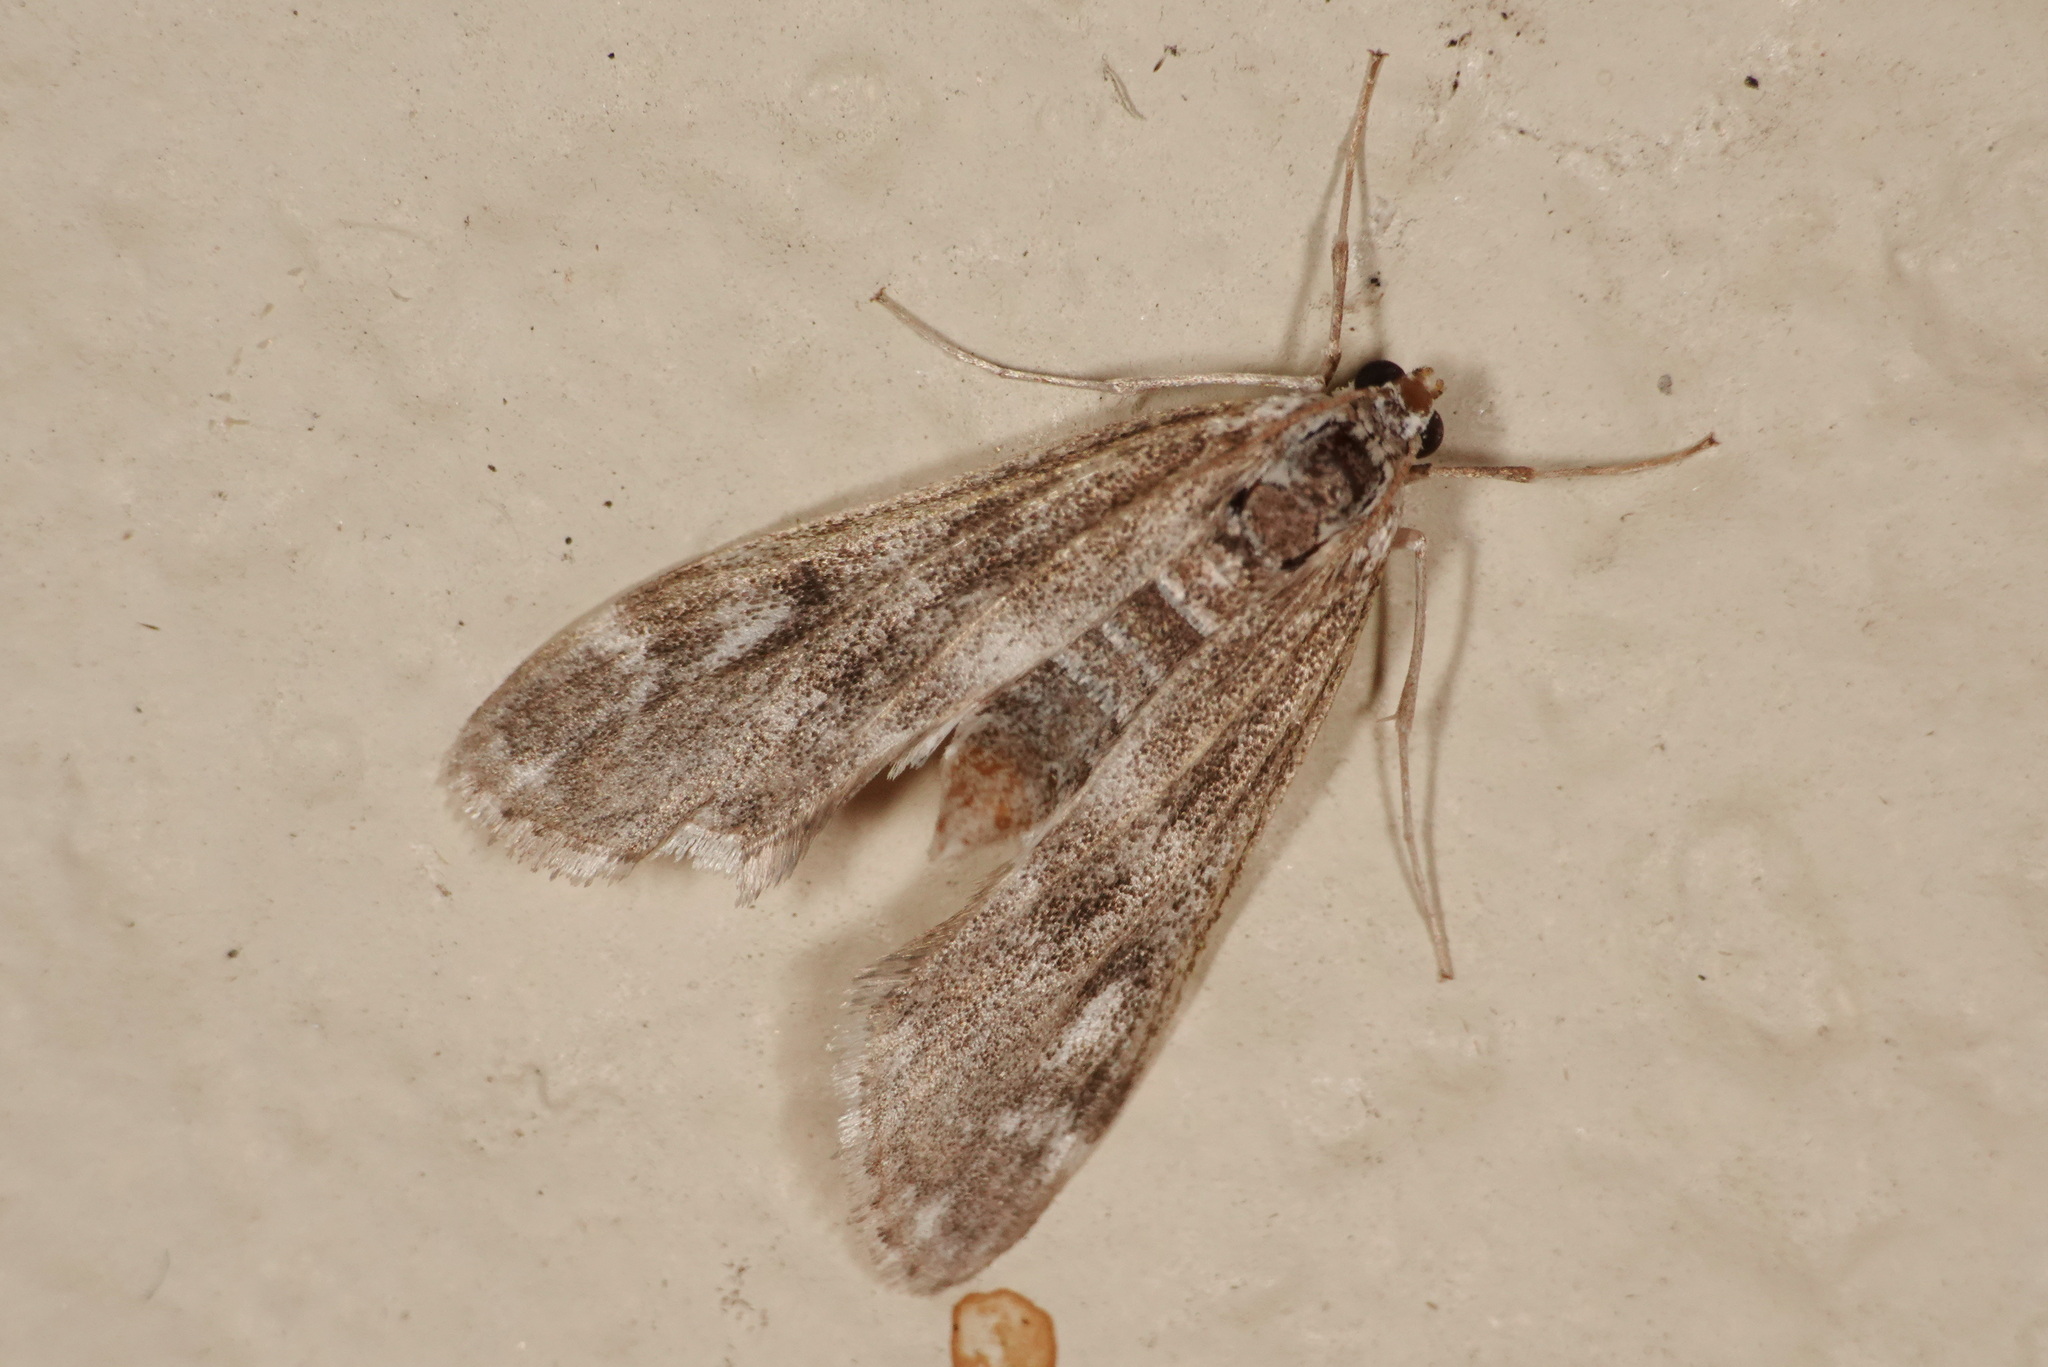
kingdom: Animalia
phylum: Arthropoda
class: Insecta
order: Lepidoptera
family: Crambidae
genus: Hygraula
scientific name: Hygraula nitens
